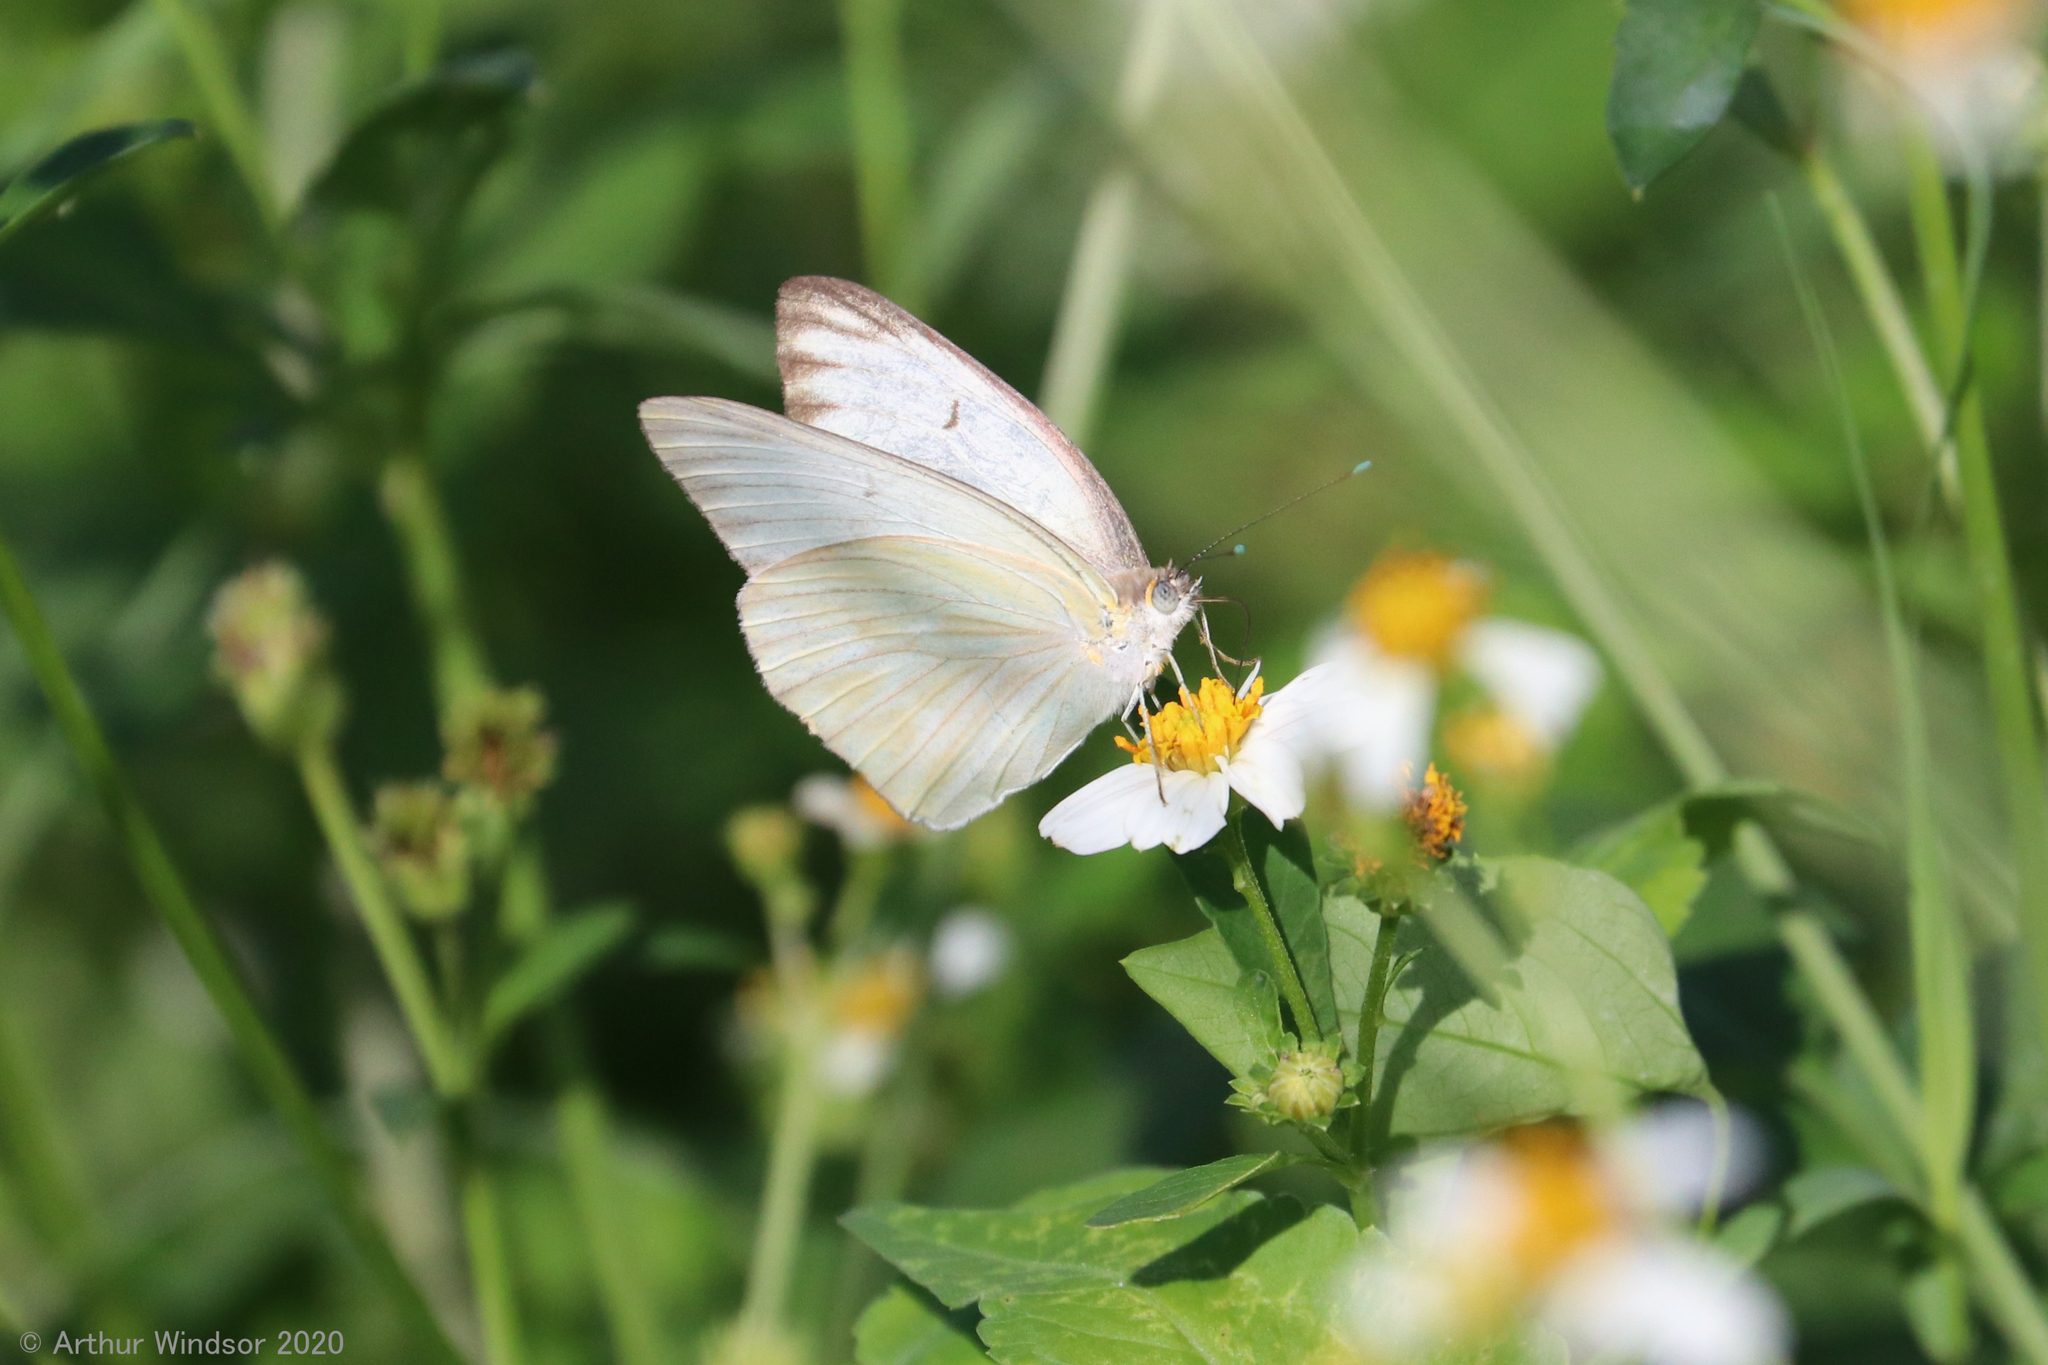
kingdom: Animalia
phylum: Arthropoda
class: Insecta
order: Lepidoptera
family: Pieridae
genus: Ascia
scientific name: Ascia monuste
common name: Great southern white
